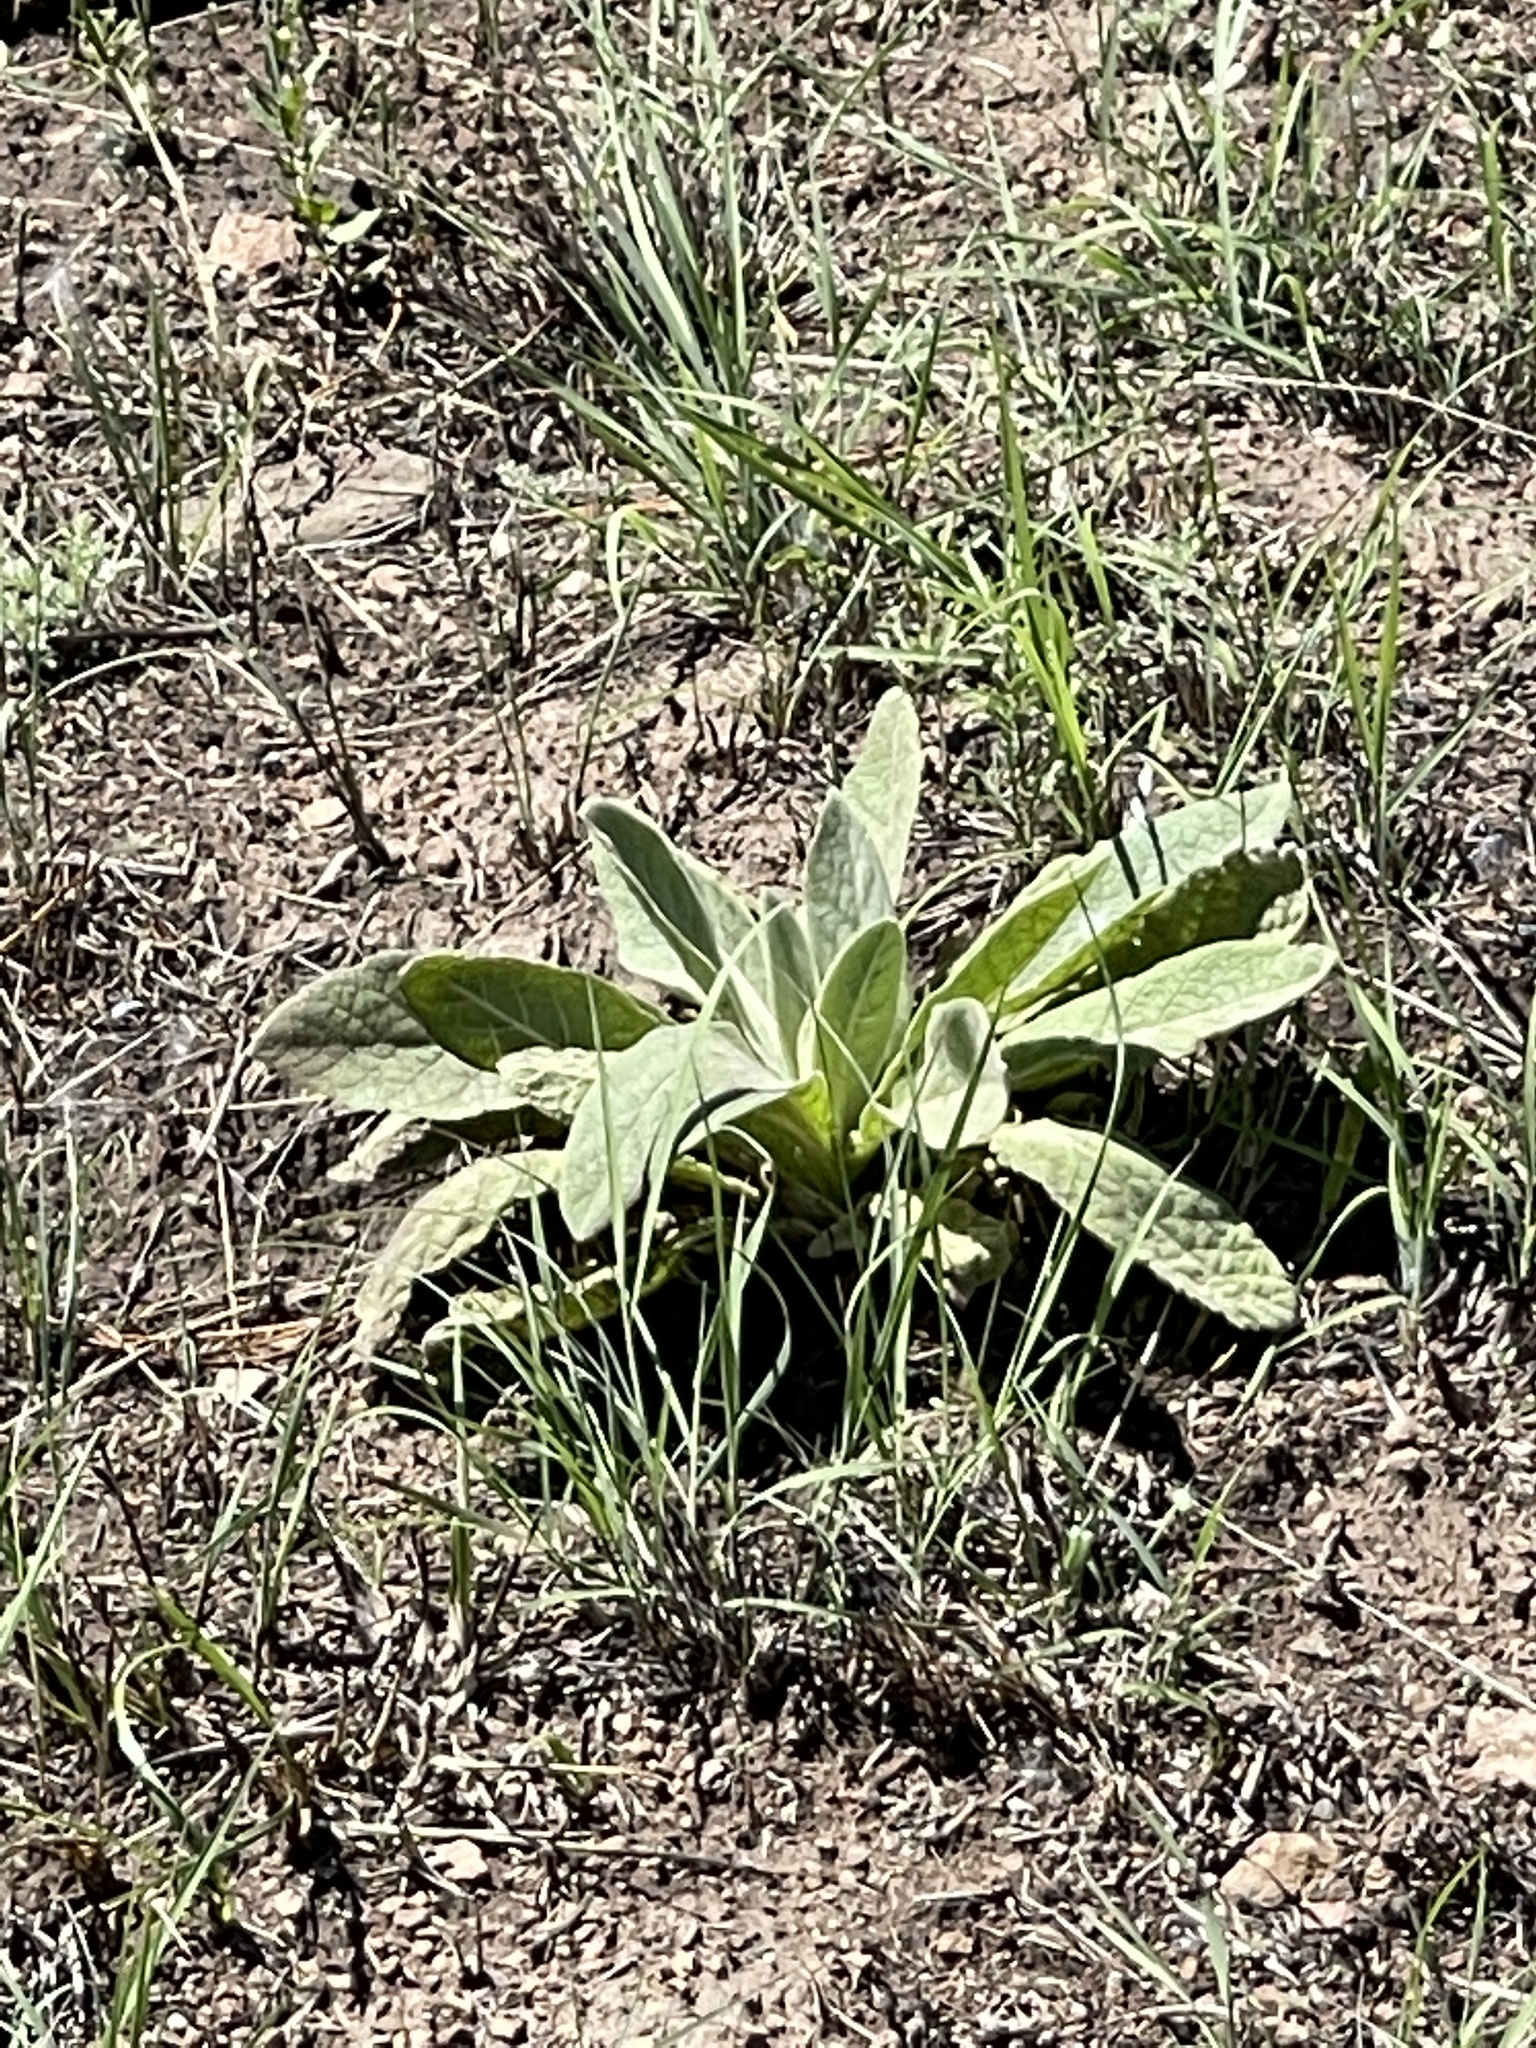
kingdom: Plantae
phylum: Tracheophyta
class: Magnoliopsida
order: Lamiales
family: Scrophulariaceae
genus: Verbascum
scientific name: Verbascum thapsus
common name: Common mullein
